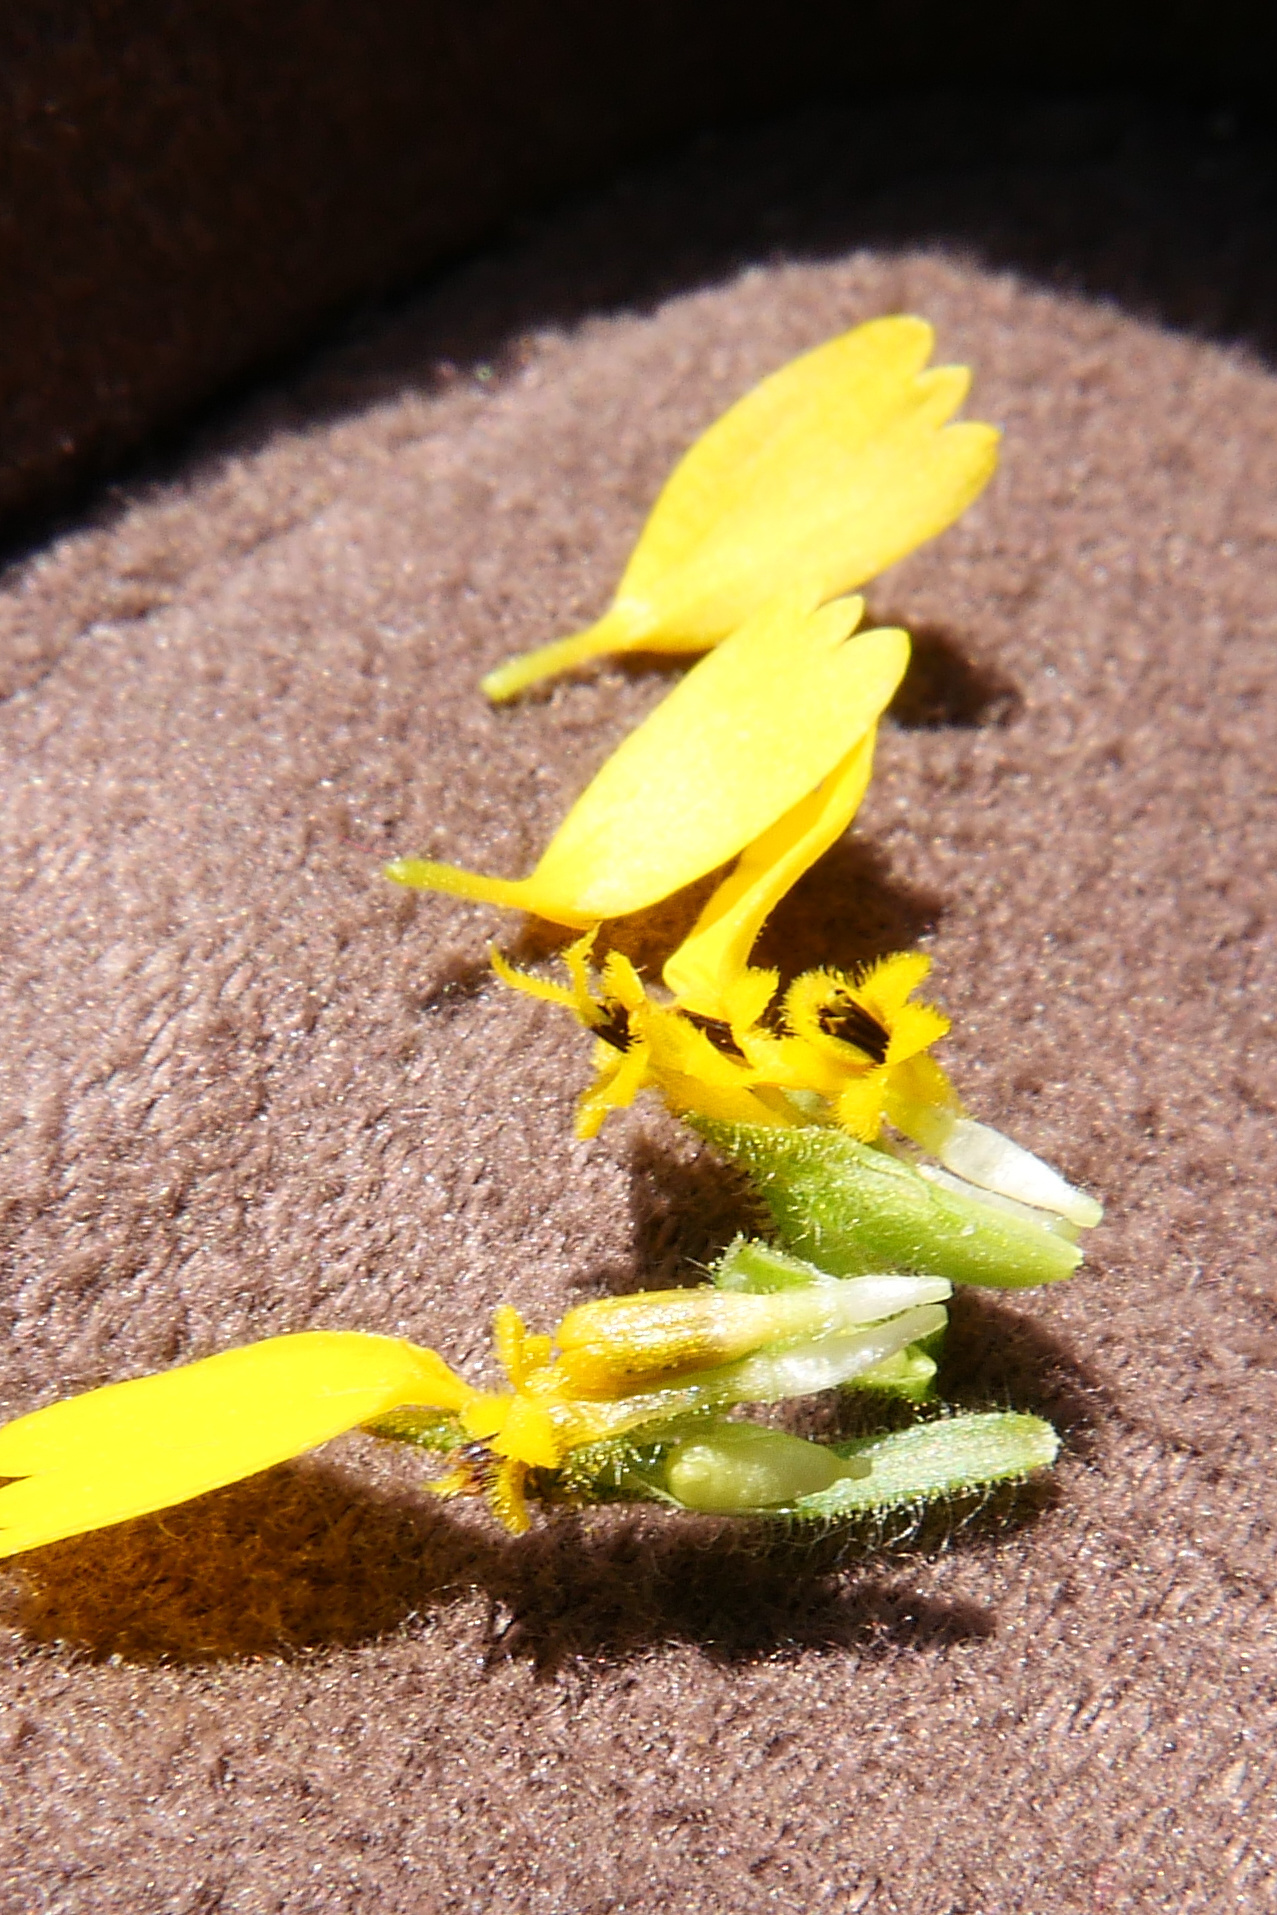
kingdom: Plantae
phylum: Tracheophyta
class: Magnoliopsida
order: Asterales
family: Asteraceae
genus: Deinandra
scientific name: Deinandra corymbosa
